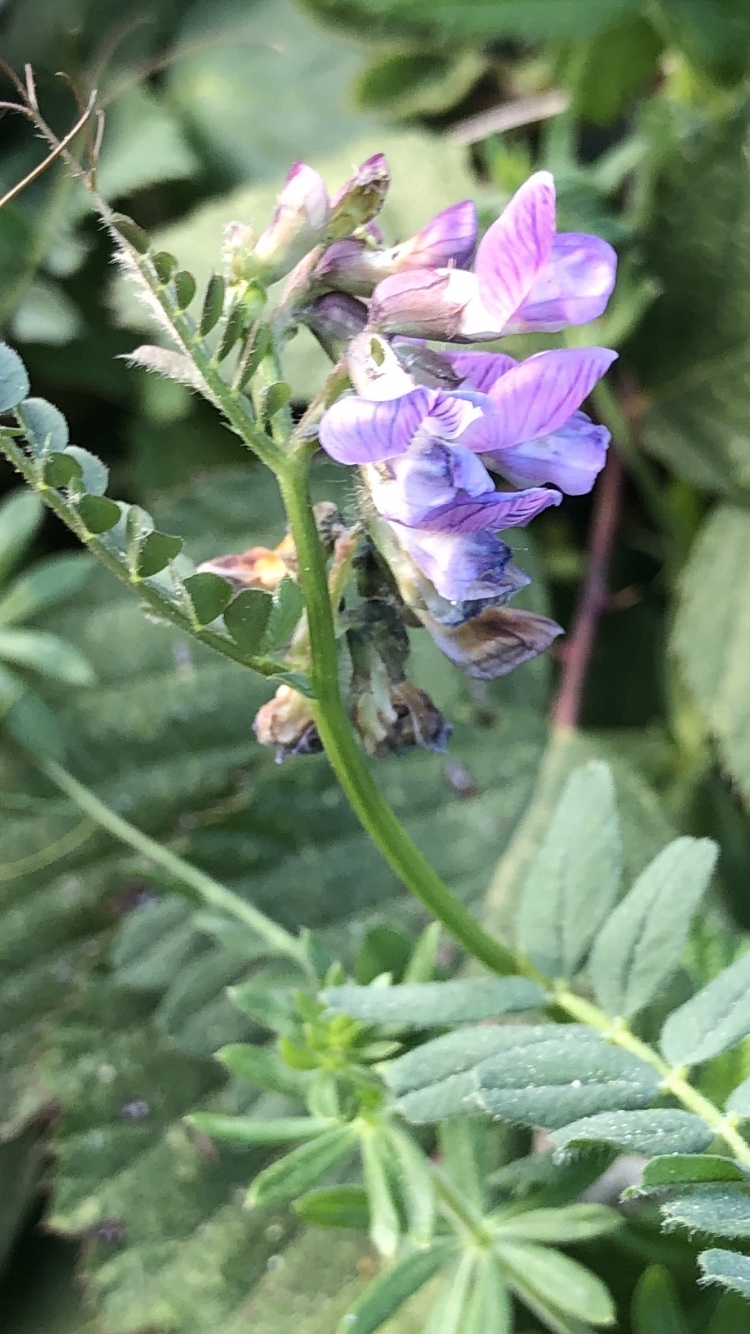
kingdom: Plantae
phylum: Tracheophyta
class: Magnoliopsida
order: Fabales
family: Fabaceae
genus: Vicia
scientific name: Vicia sepium
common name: Bush vetch
